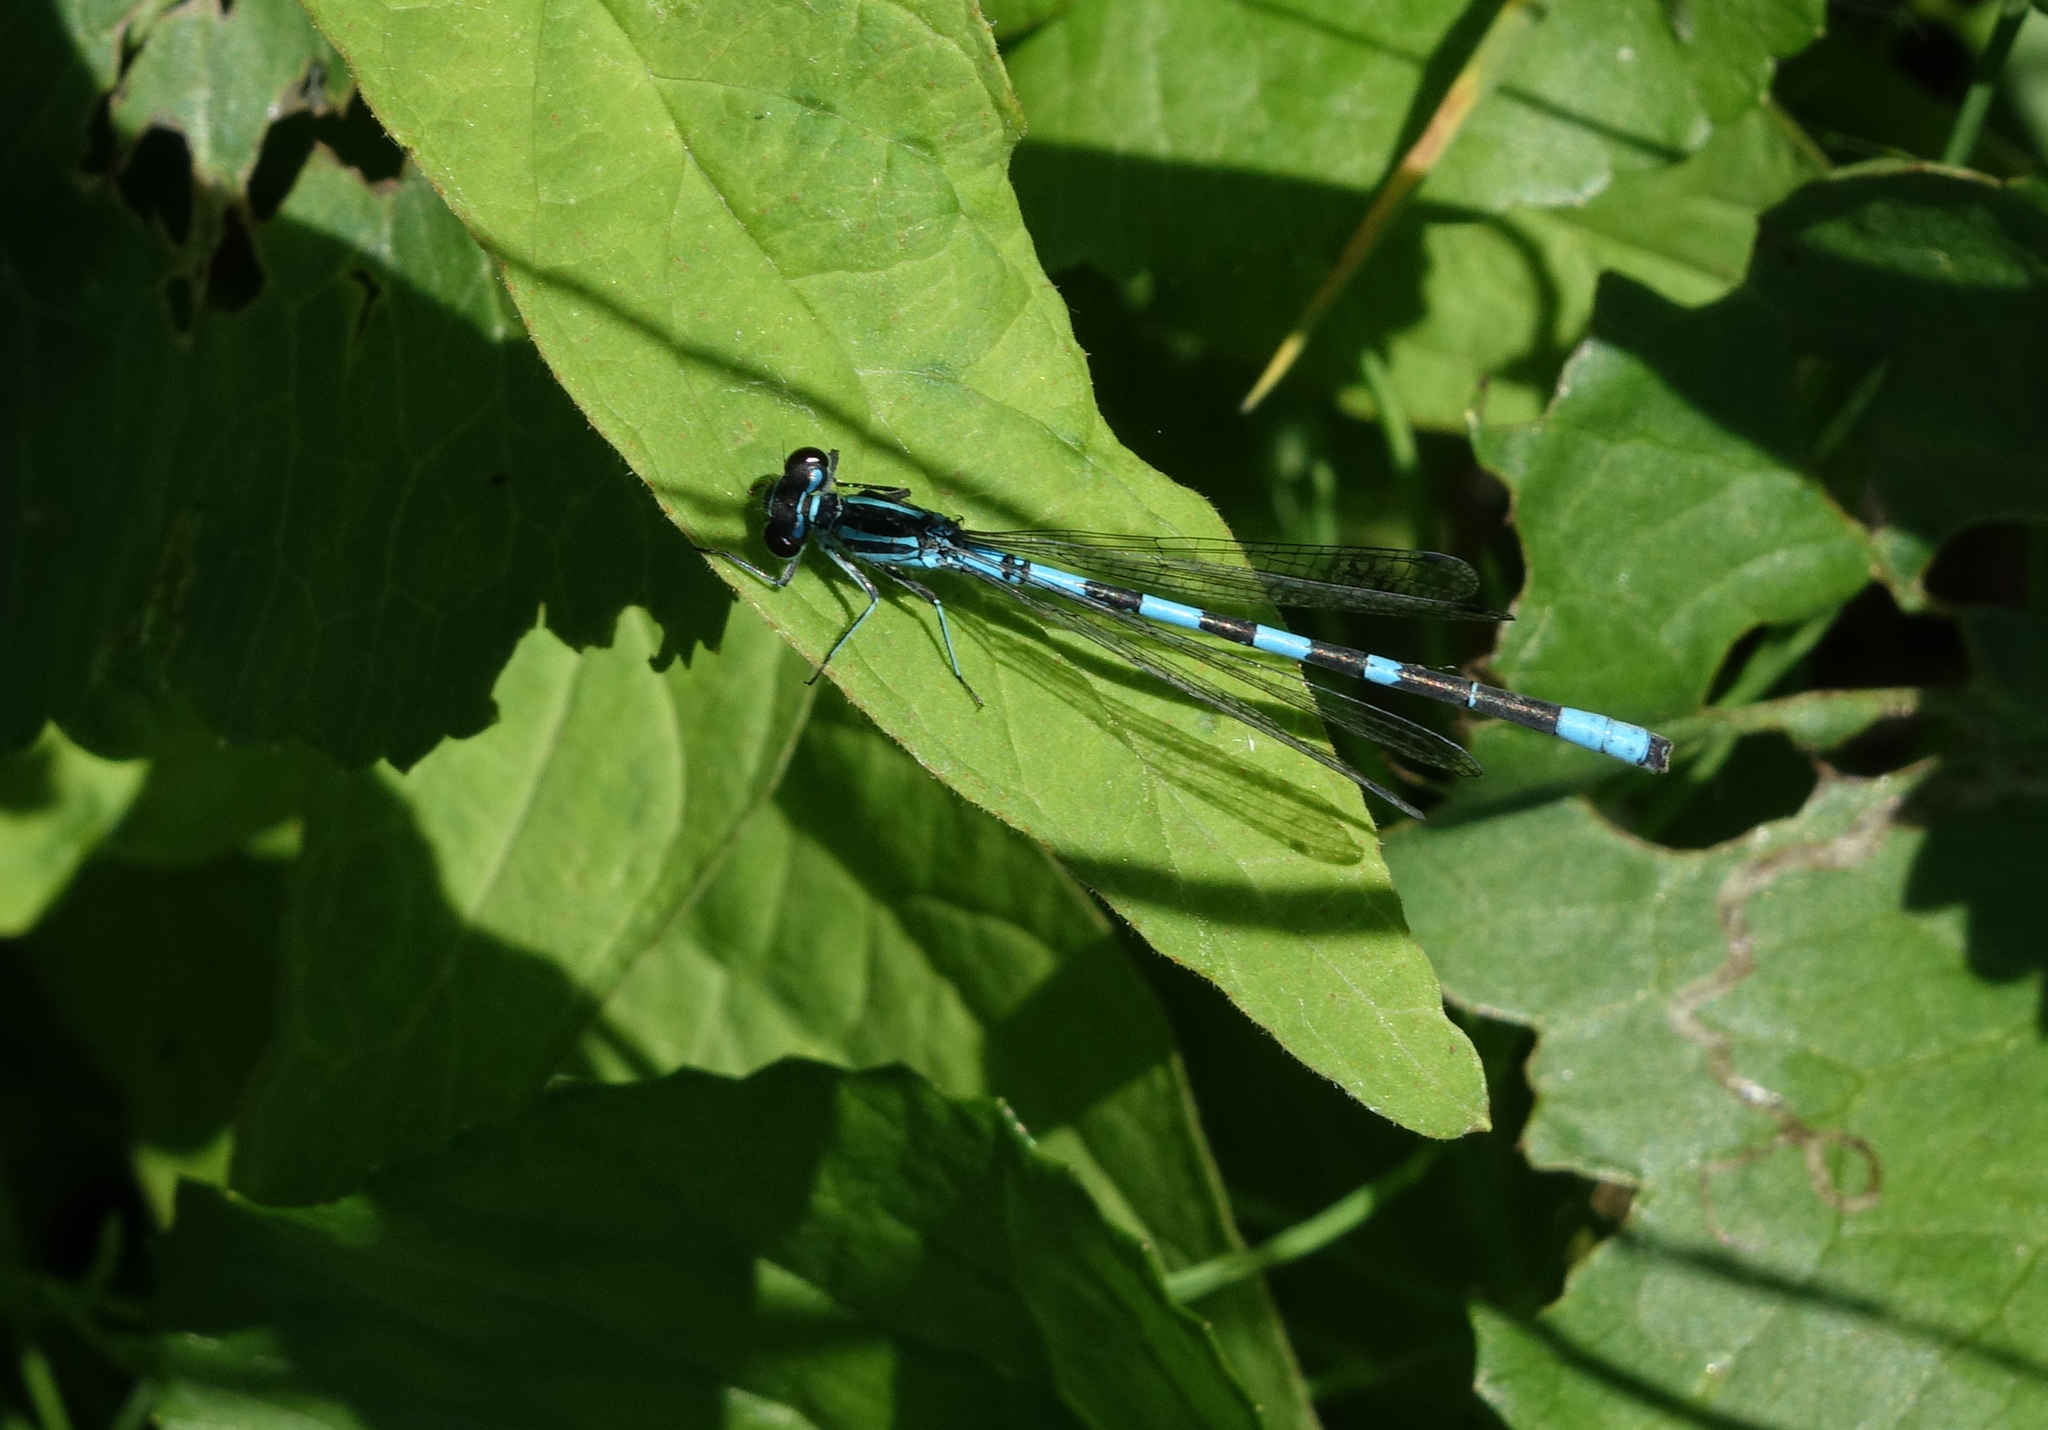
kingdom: Animalia
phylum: Arthropoda
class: Insecta
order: Odonata
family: Coenagrionidae
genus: Coenagrion
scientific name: Coenagrion hastulatum
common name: Spearhead bluet
